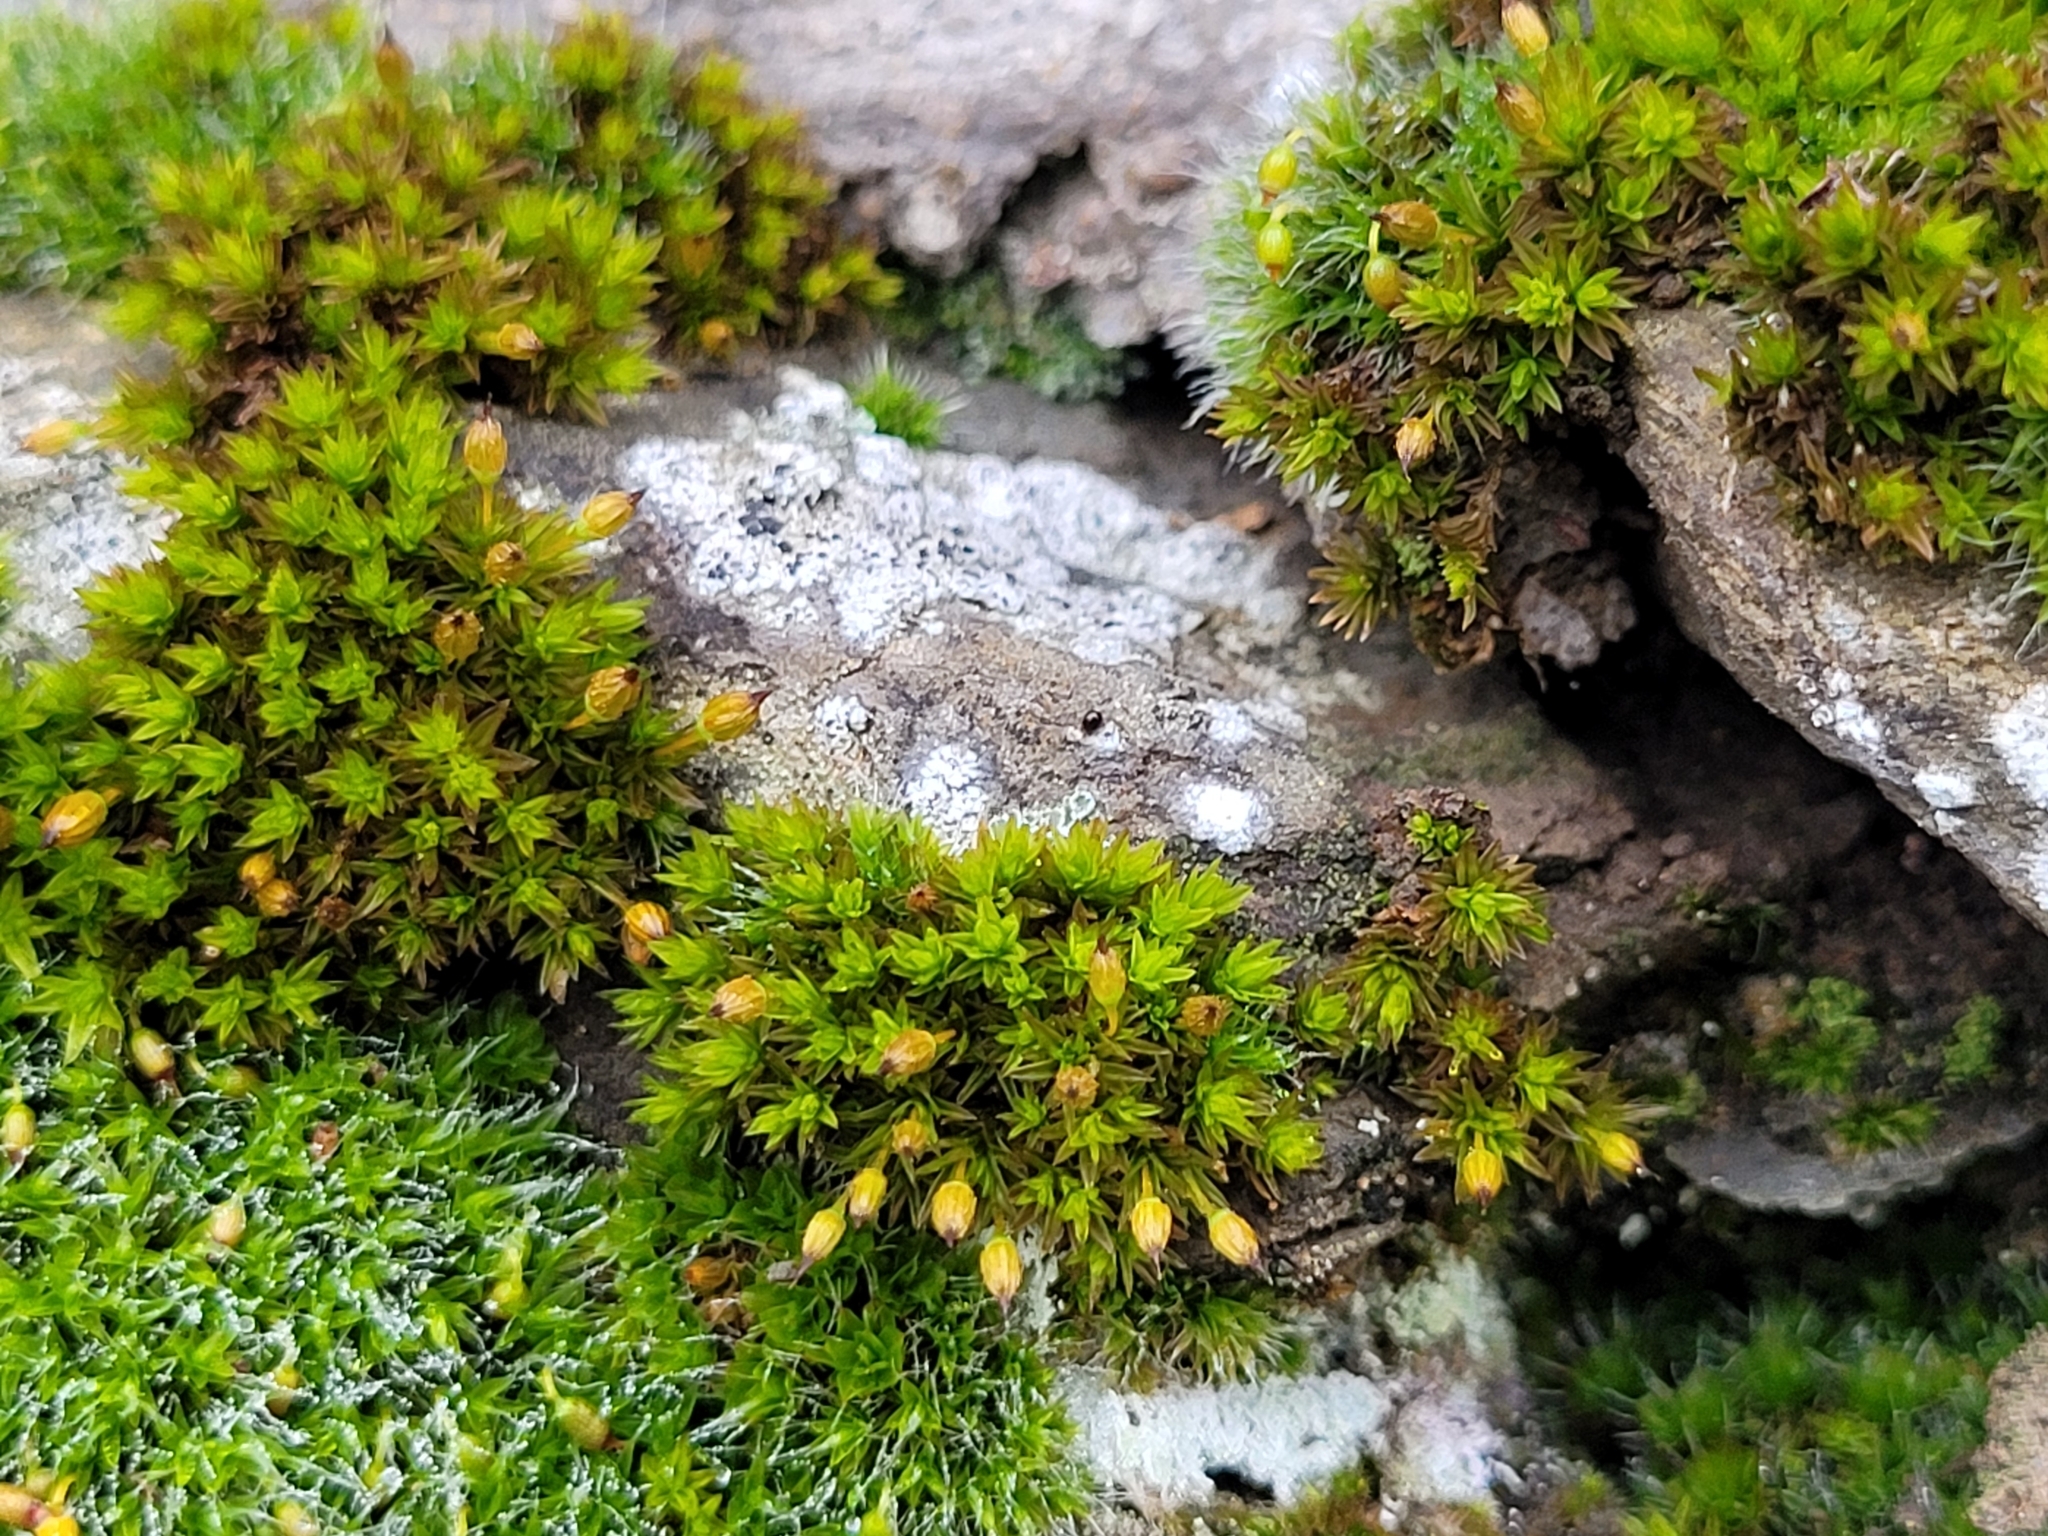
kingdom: Plantae
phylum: Bryophyta
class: Bryopsida
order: Orthotrichales
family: Orthotrichaceae
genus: Orthotrichum
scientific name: Orthotrichum anomalum
